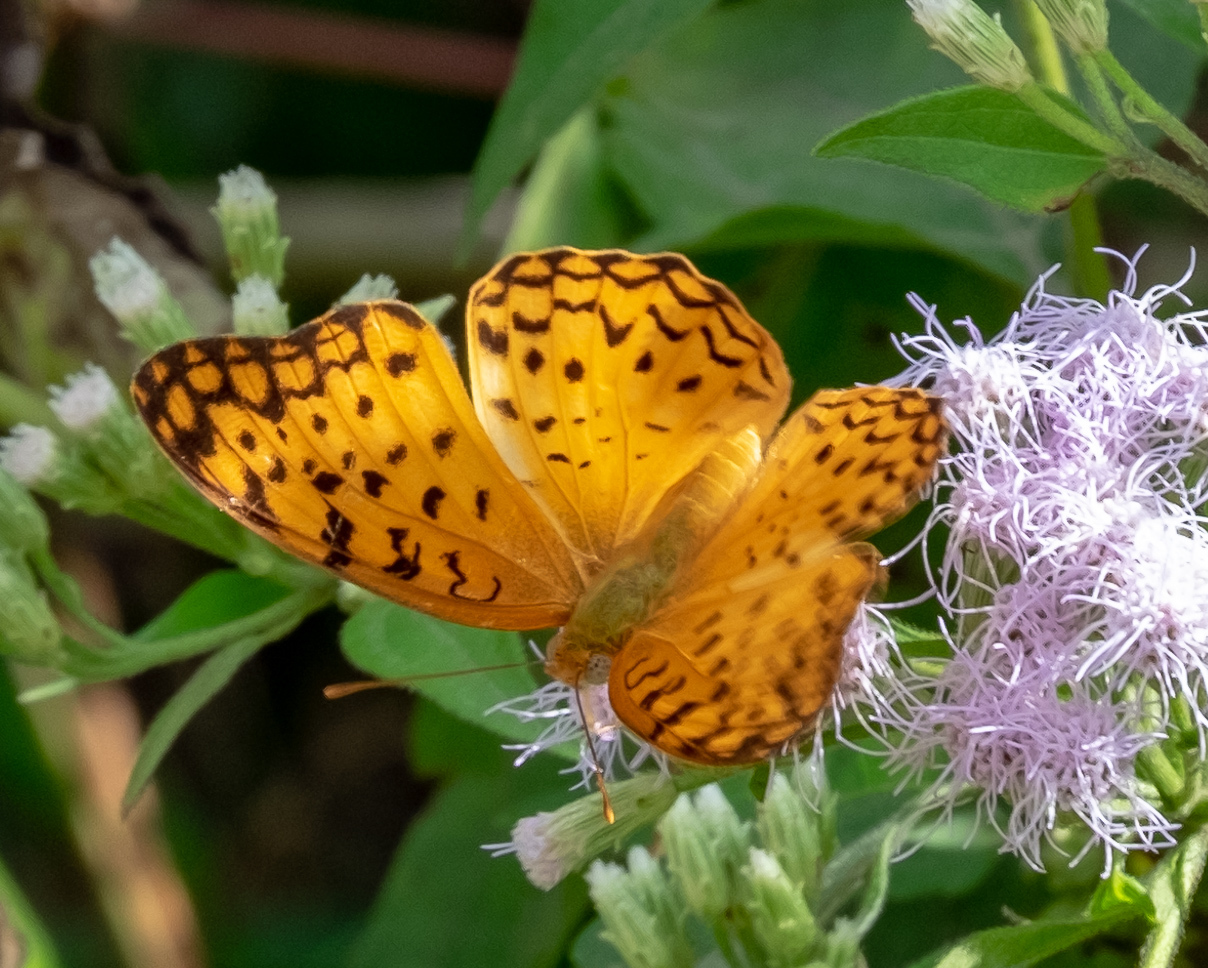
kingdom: Animalia
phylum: Arthropoda
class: Insecta
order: Lepidoptera
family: Nymphalidae
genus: Phalanta
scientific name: Phalanta phalantha
